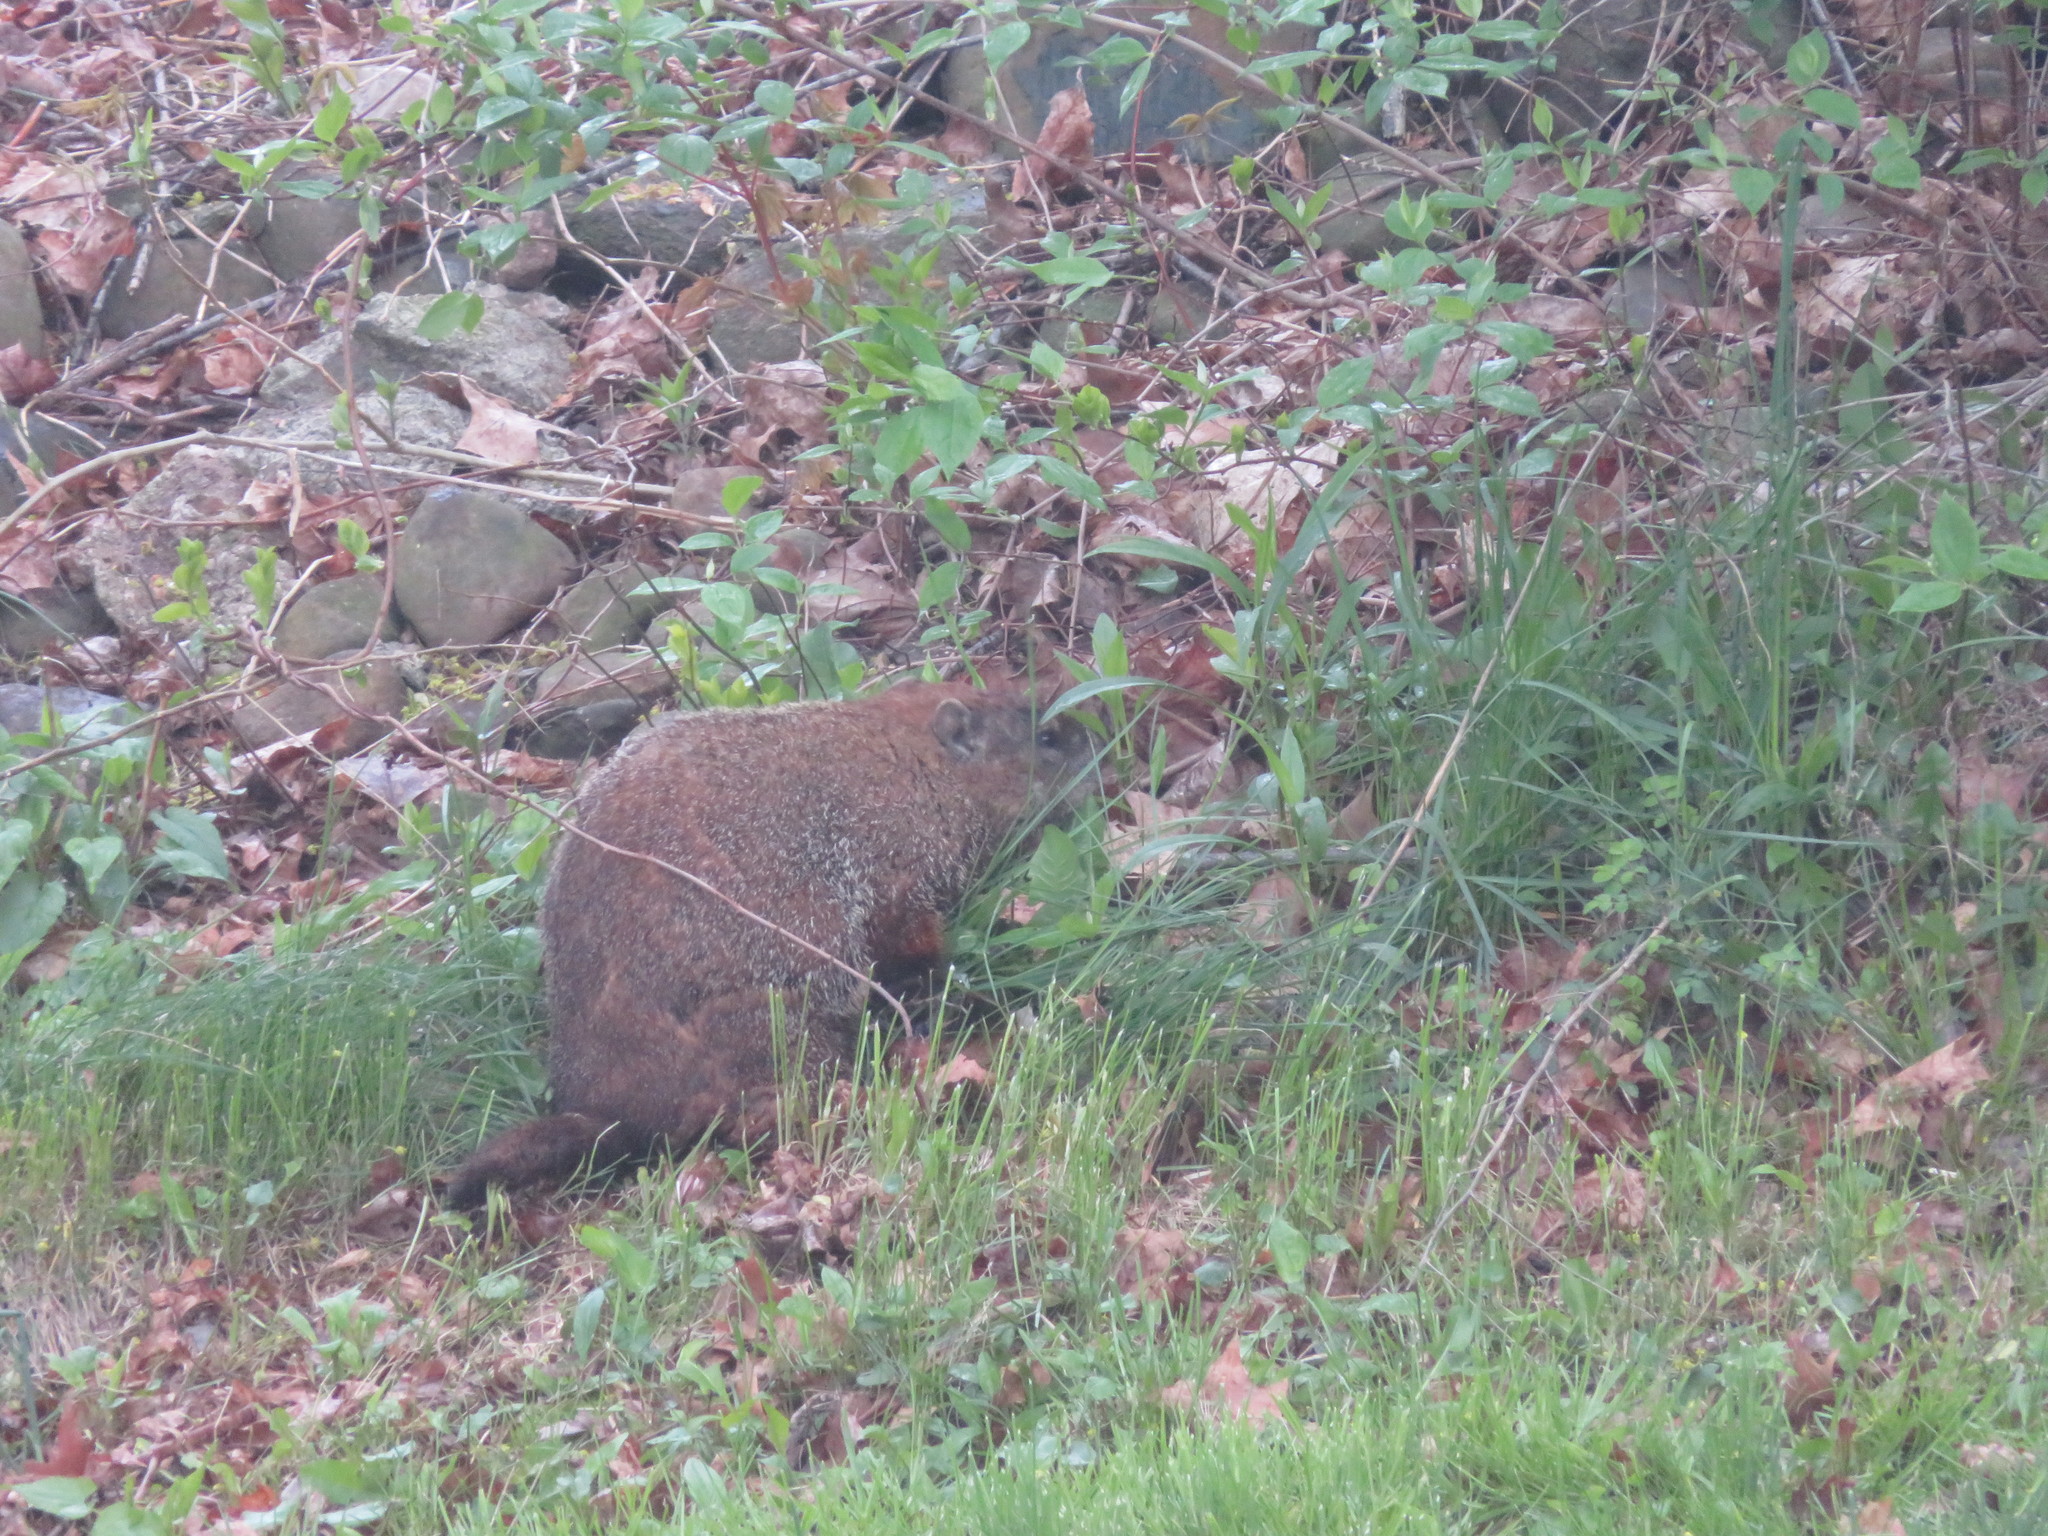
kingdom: Animalia
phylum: Chordata
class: Mammalia
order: Rodentia
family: Sciuridae
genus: Marmota
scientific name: Marmota monax
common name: Groundhog
